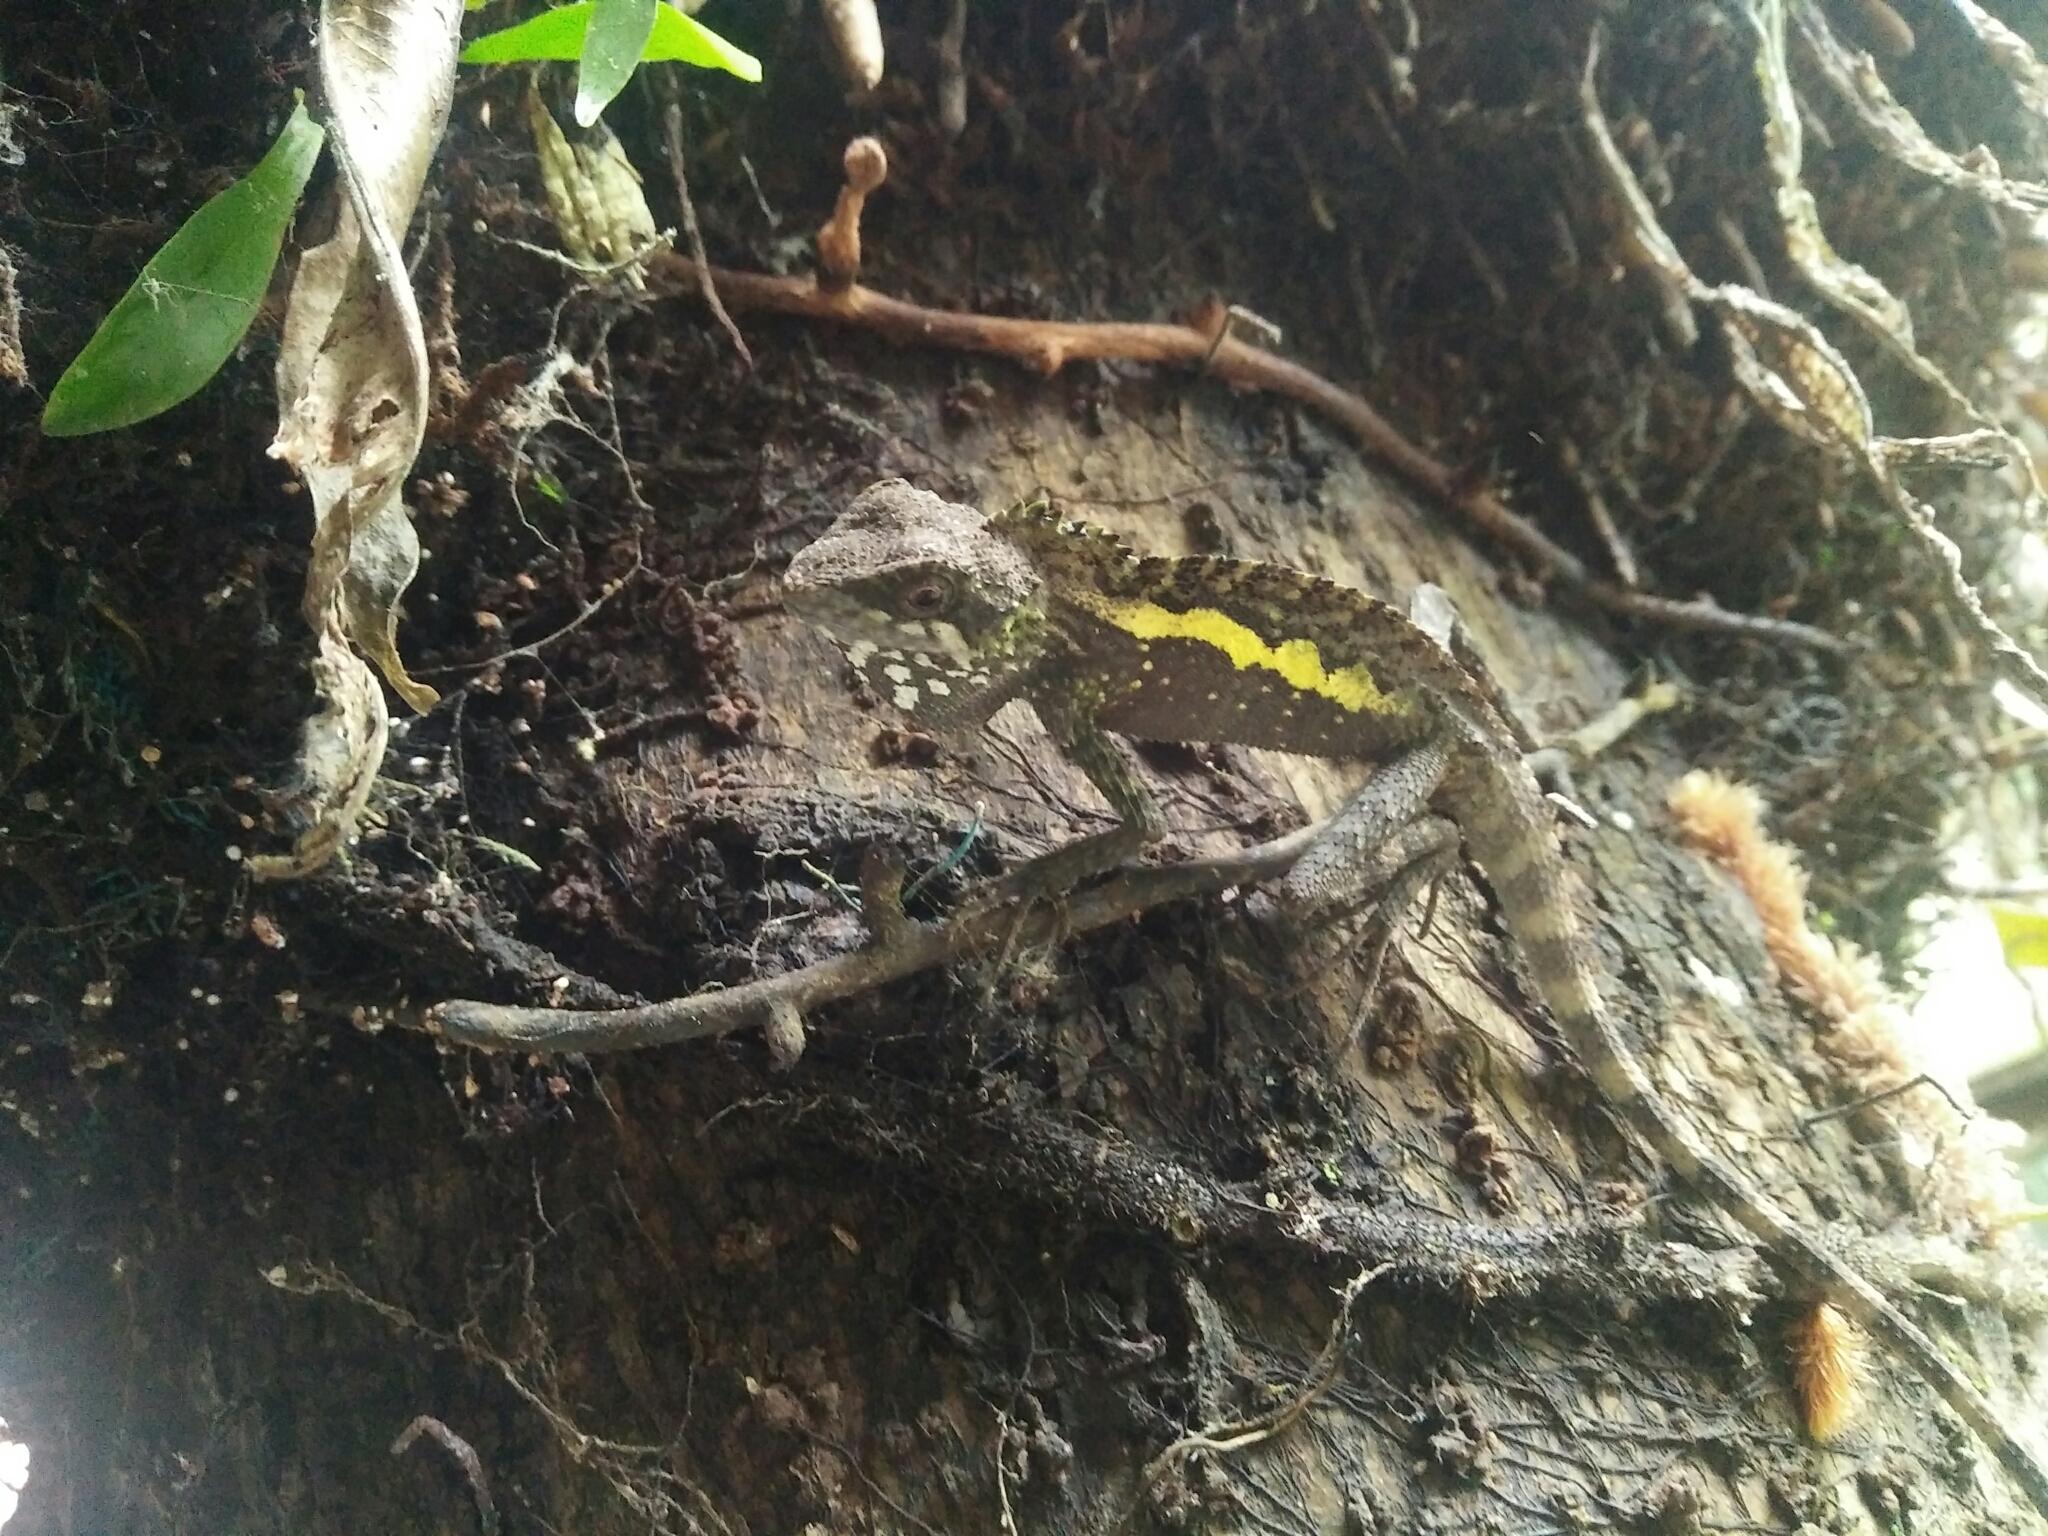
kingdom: Animalia
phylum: Chordata
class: Squamata
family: Agamidae
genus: Diploderma
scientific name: Diploderma swinhonis
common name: Taiwan japalure
